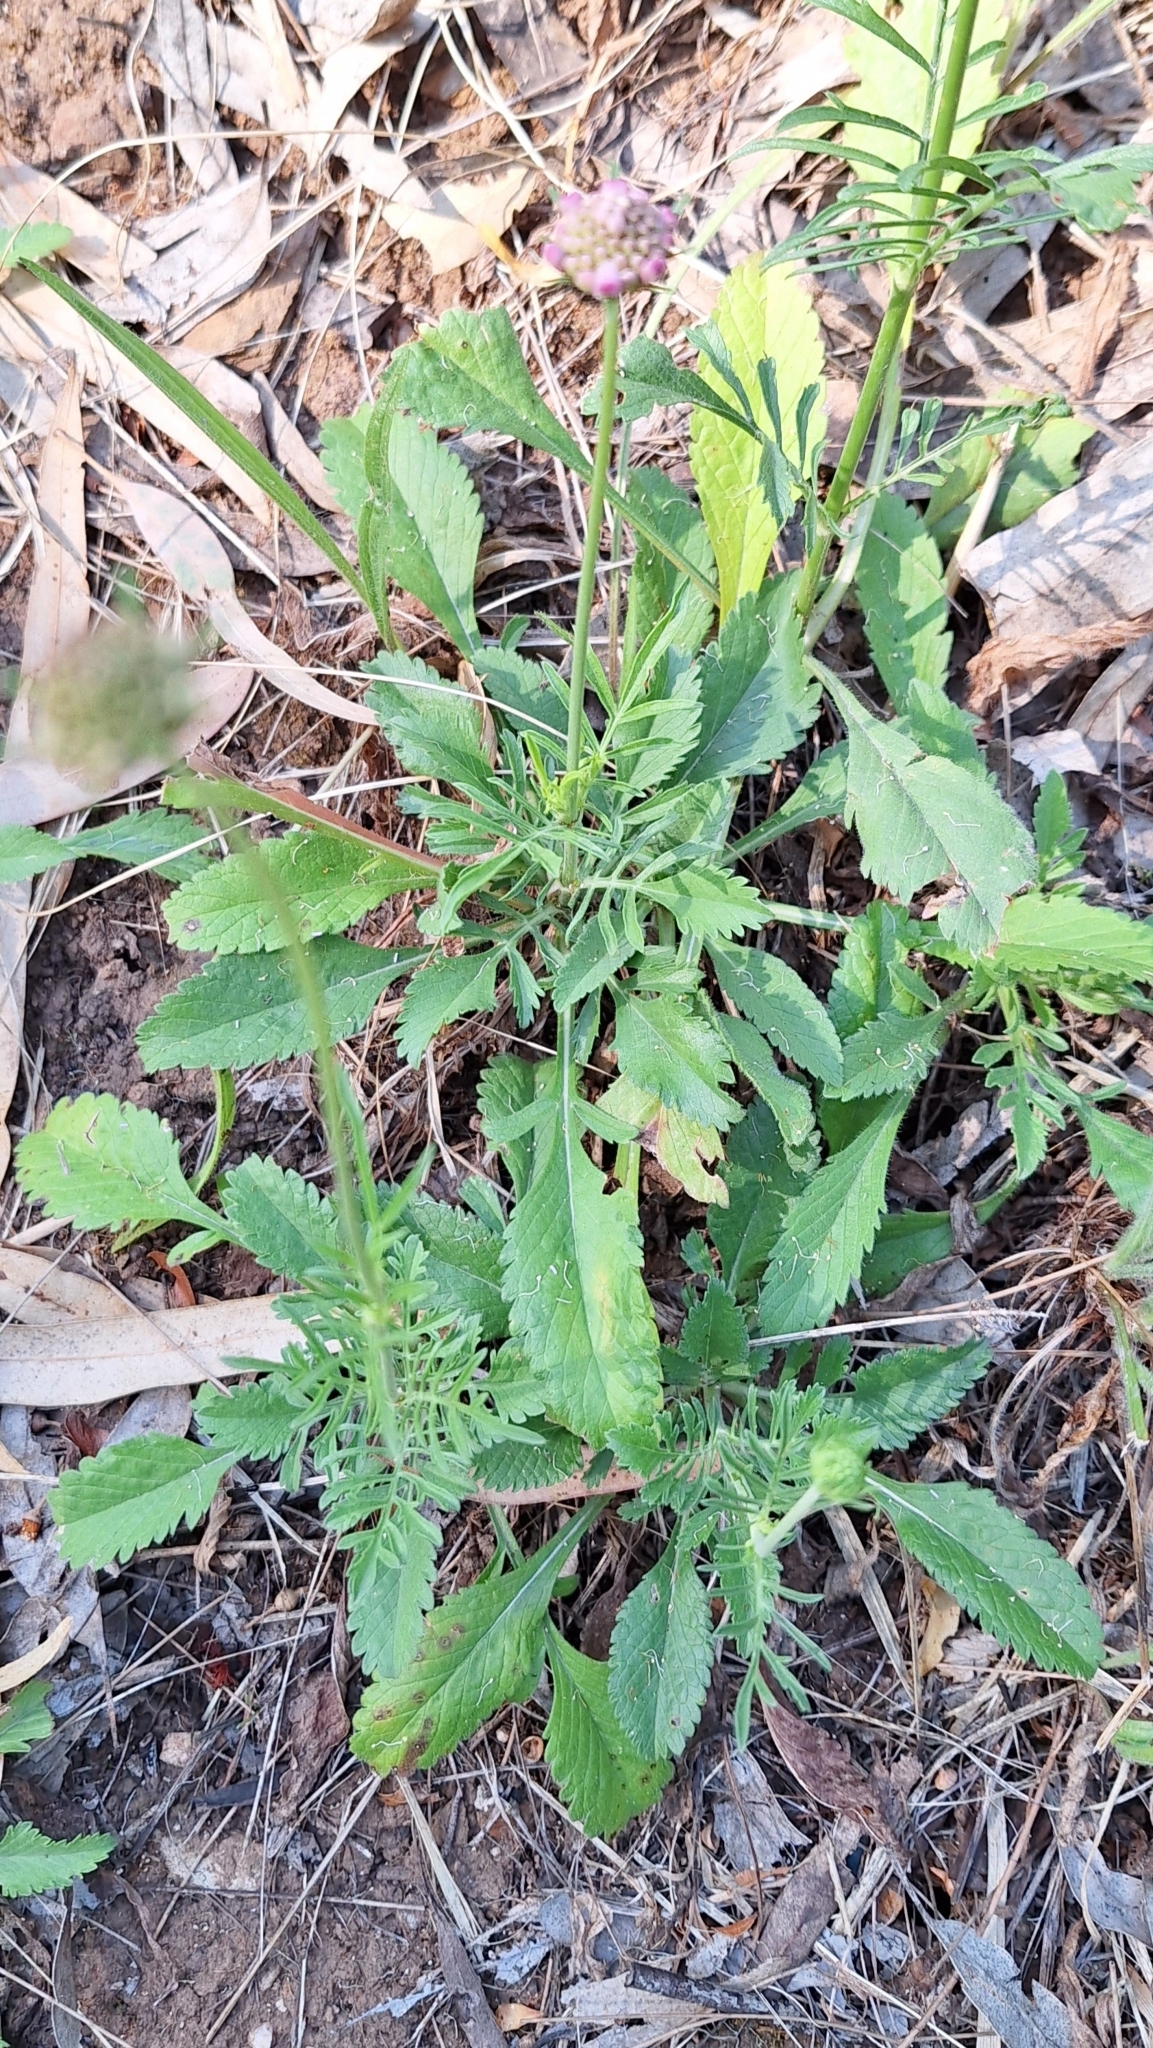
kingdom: Plantae
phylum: Tracheophyta
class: Magnoliopsida
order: Dipsacales
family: Caprifoliaceae
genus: Sixalix
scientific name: Sixalix atropurpurea
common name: Sweet scabious
